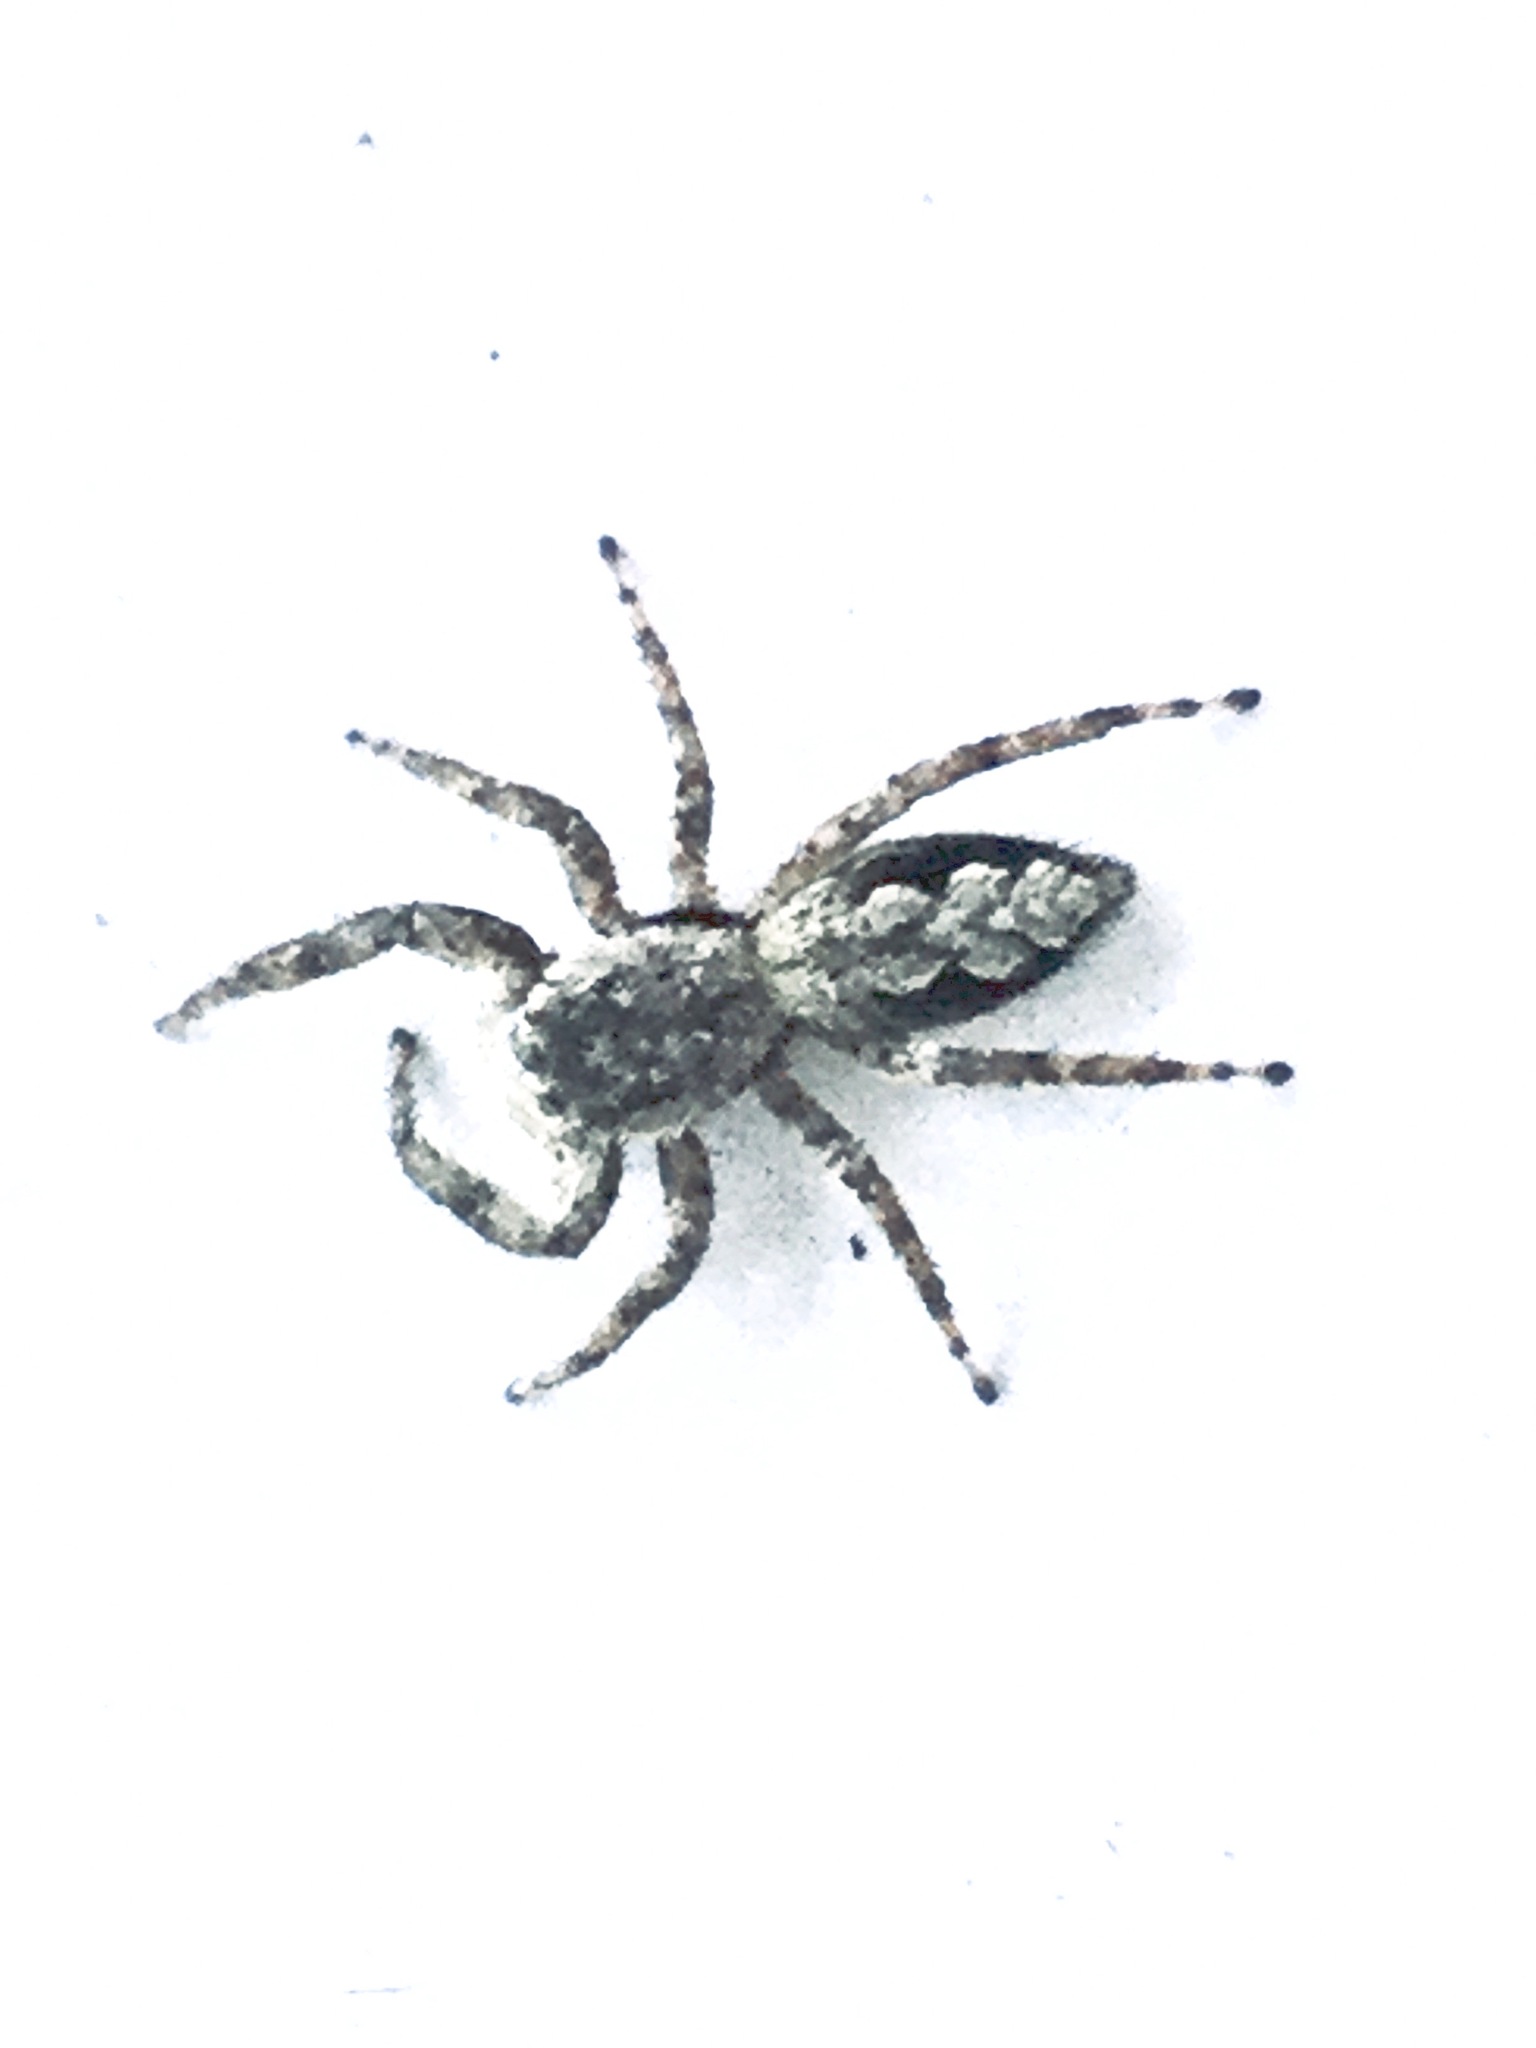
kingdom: Animalia
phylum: Arthropoda
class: Arachnida
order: Araneae
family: Salticidae
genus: Platycryptus
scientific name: Platycryptus undatus
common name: Tan jumping spider
